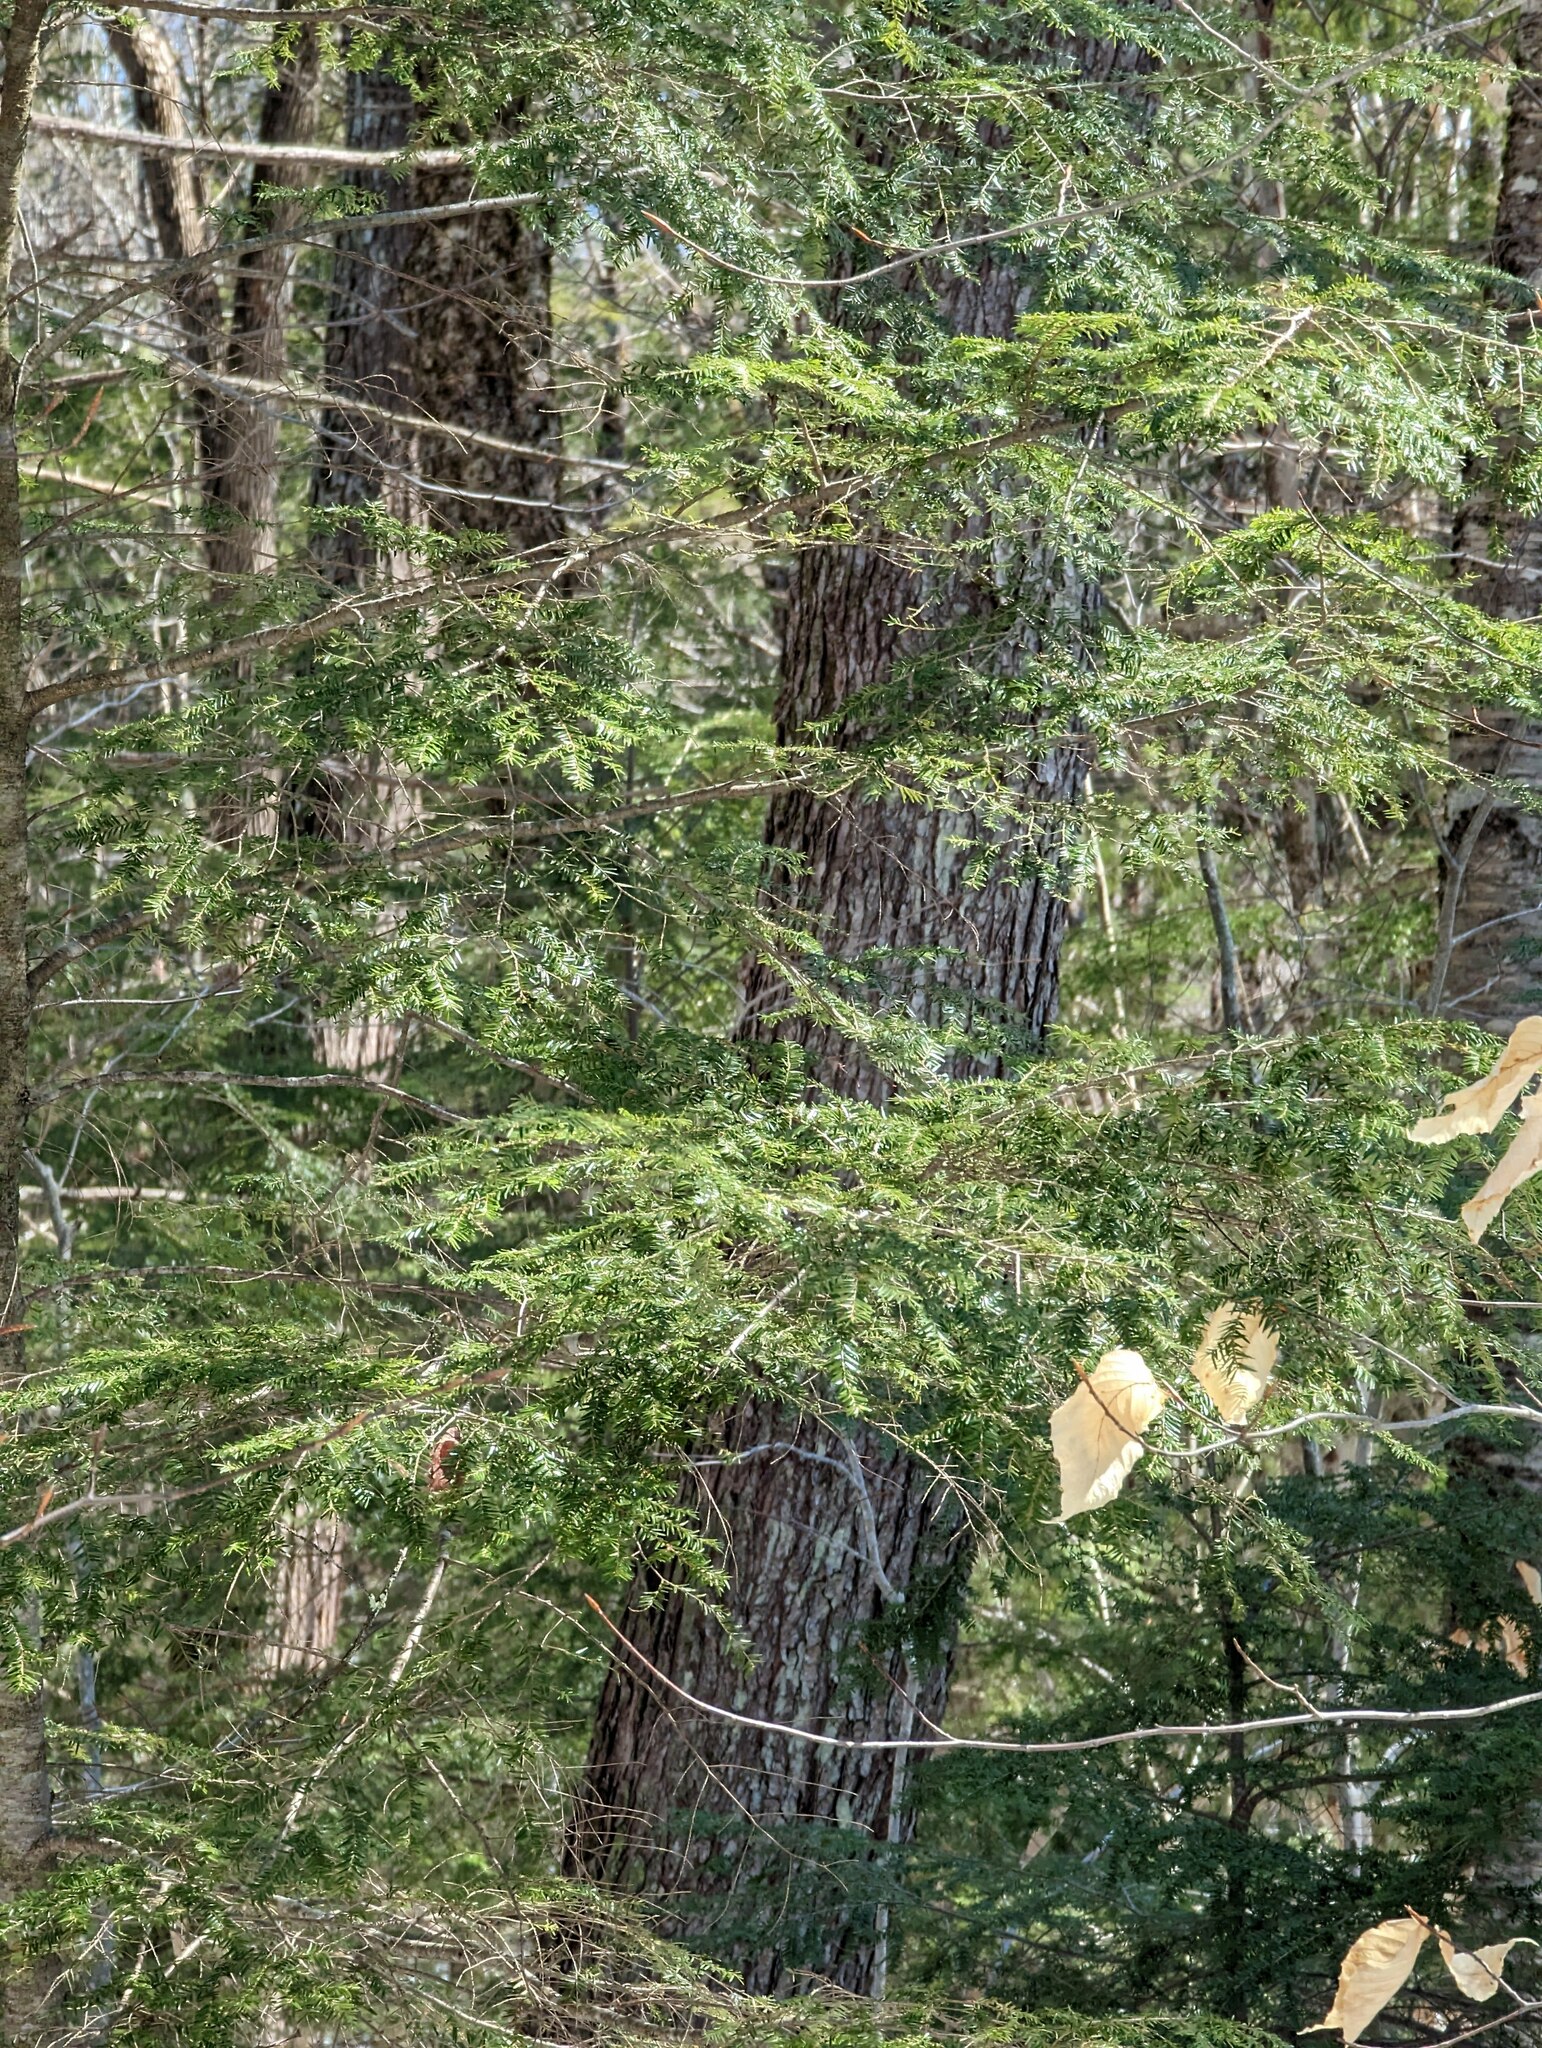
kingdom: Plantae
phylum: Tracheophyta
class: Pinopsida
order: Pinales
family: Pinaceae
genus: Tsuga
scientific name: Tsuga canadensis
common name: Eastern hemlock
